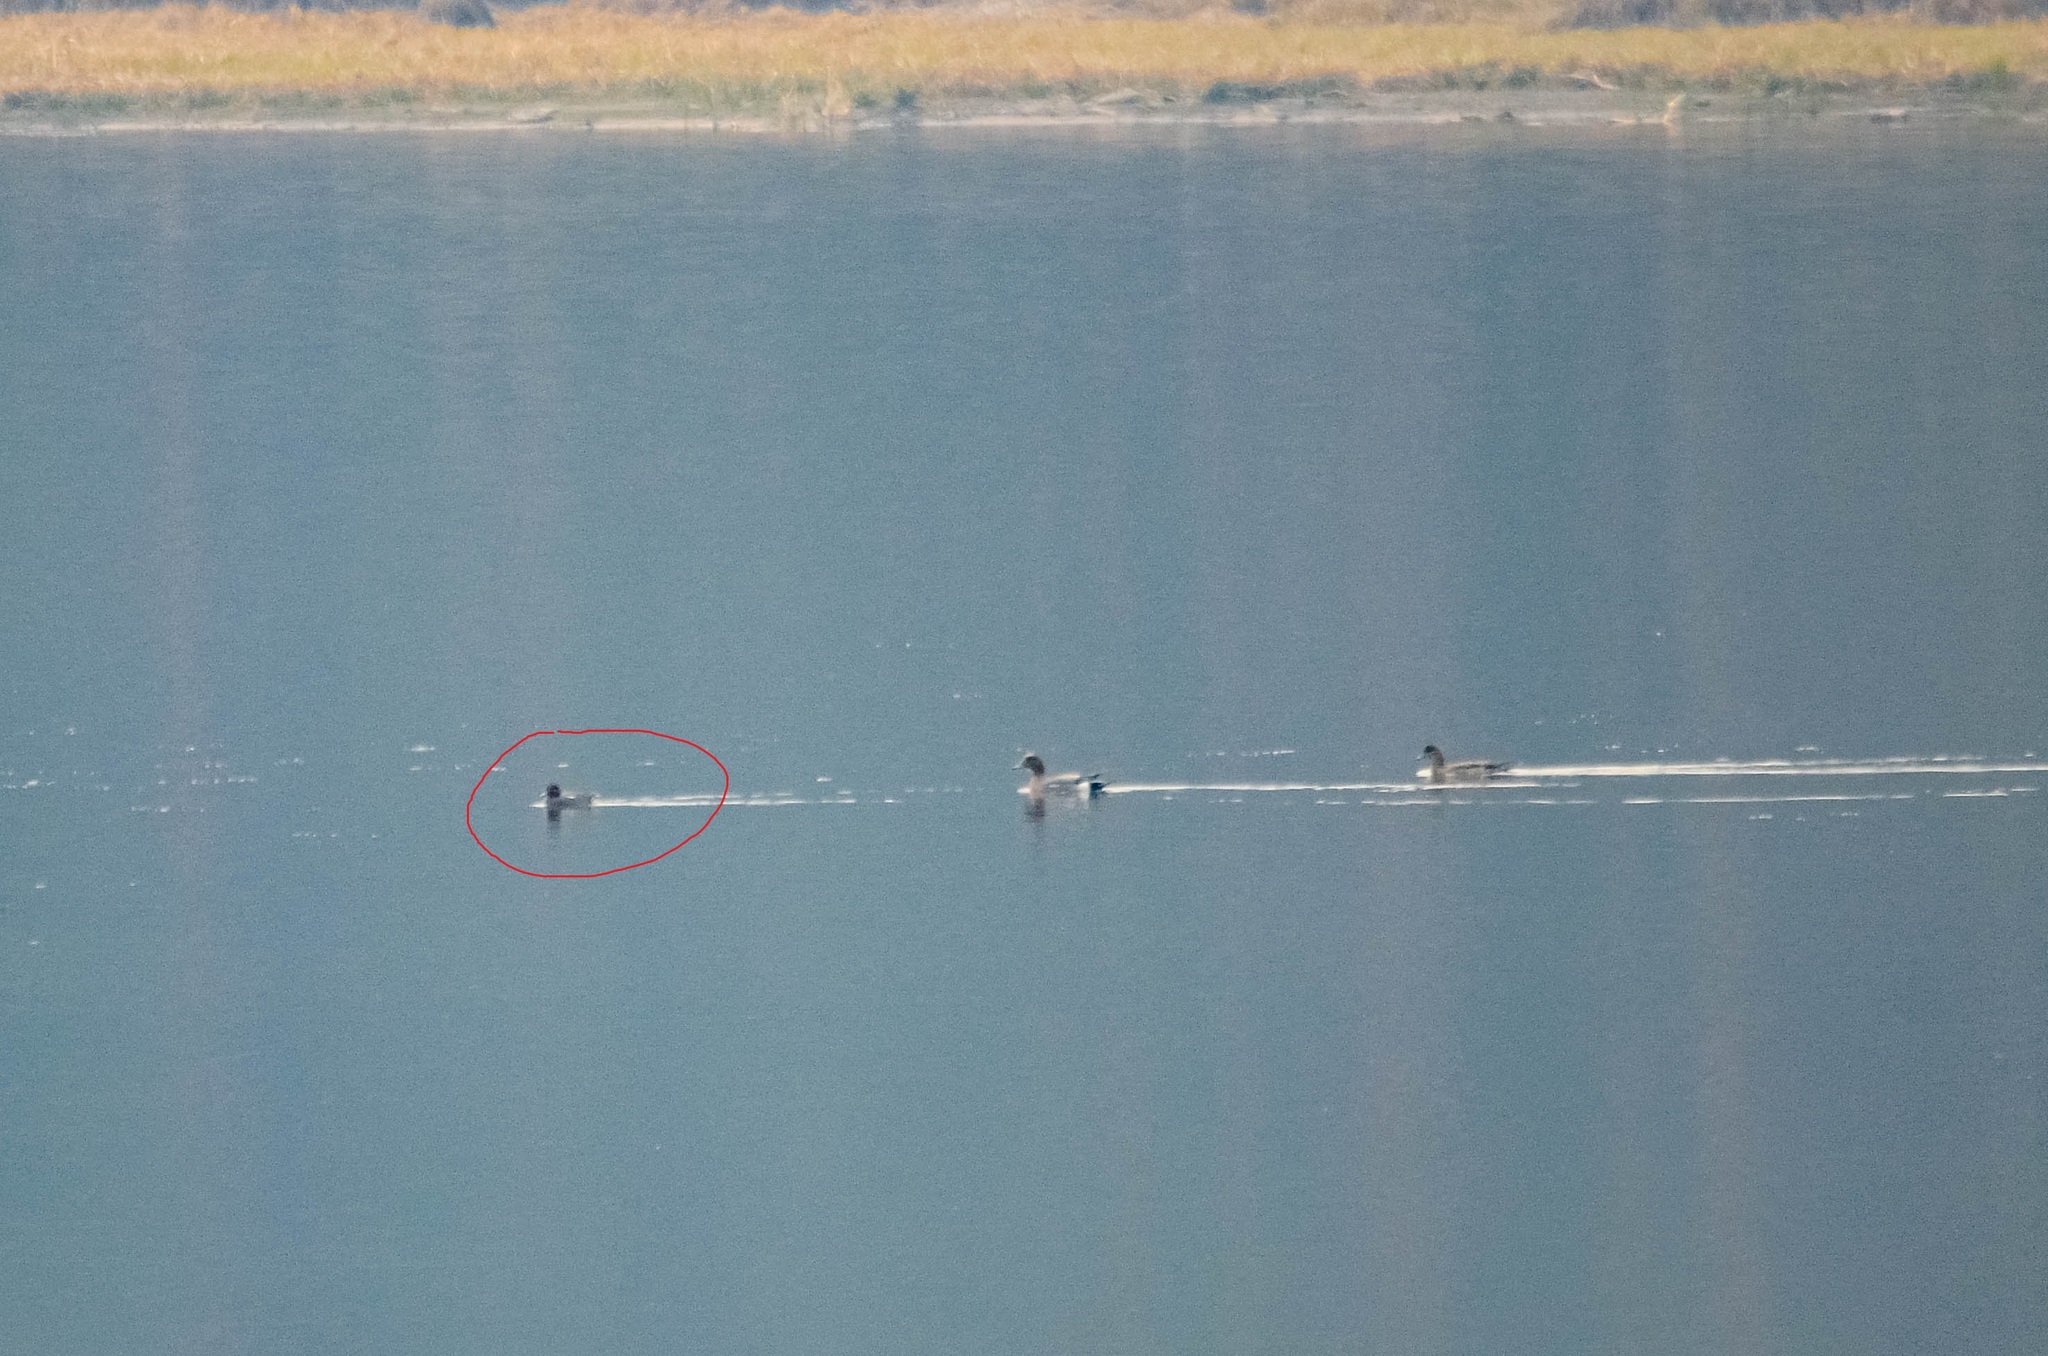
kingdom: Animalia
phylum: Chordata
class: Aves
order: Anseriformes
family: Anatidae
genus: Anas
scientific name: Anas crecca
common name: Eurasian teal
